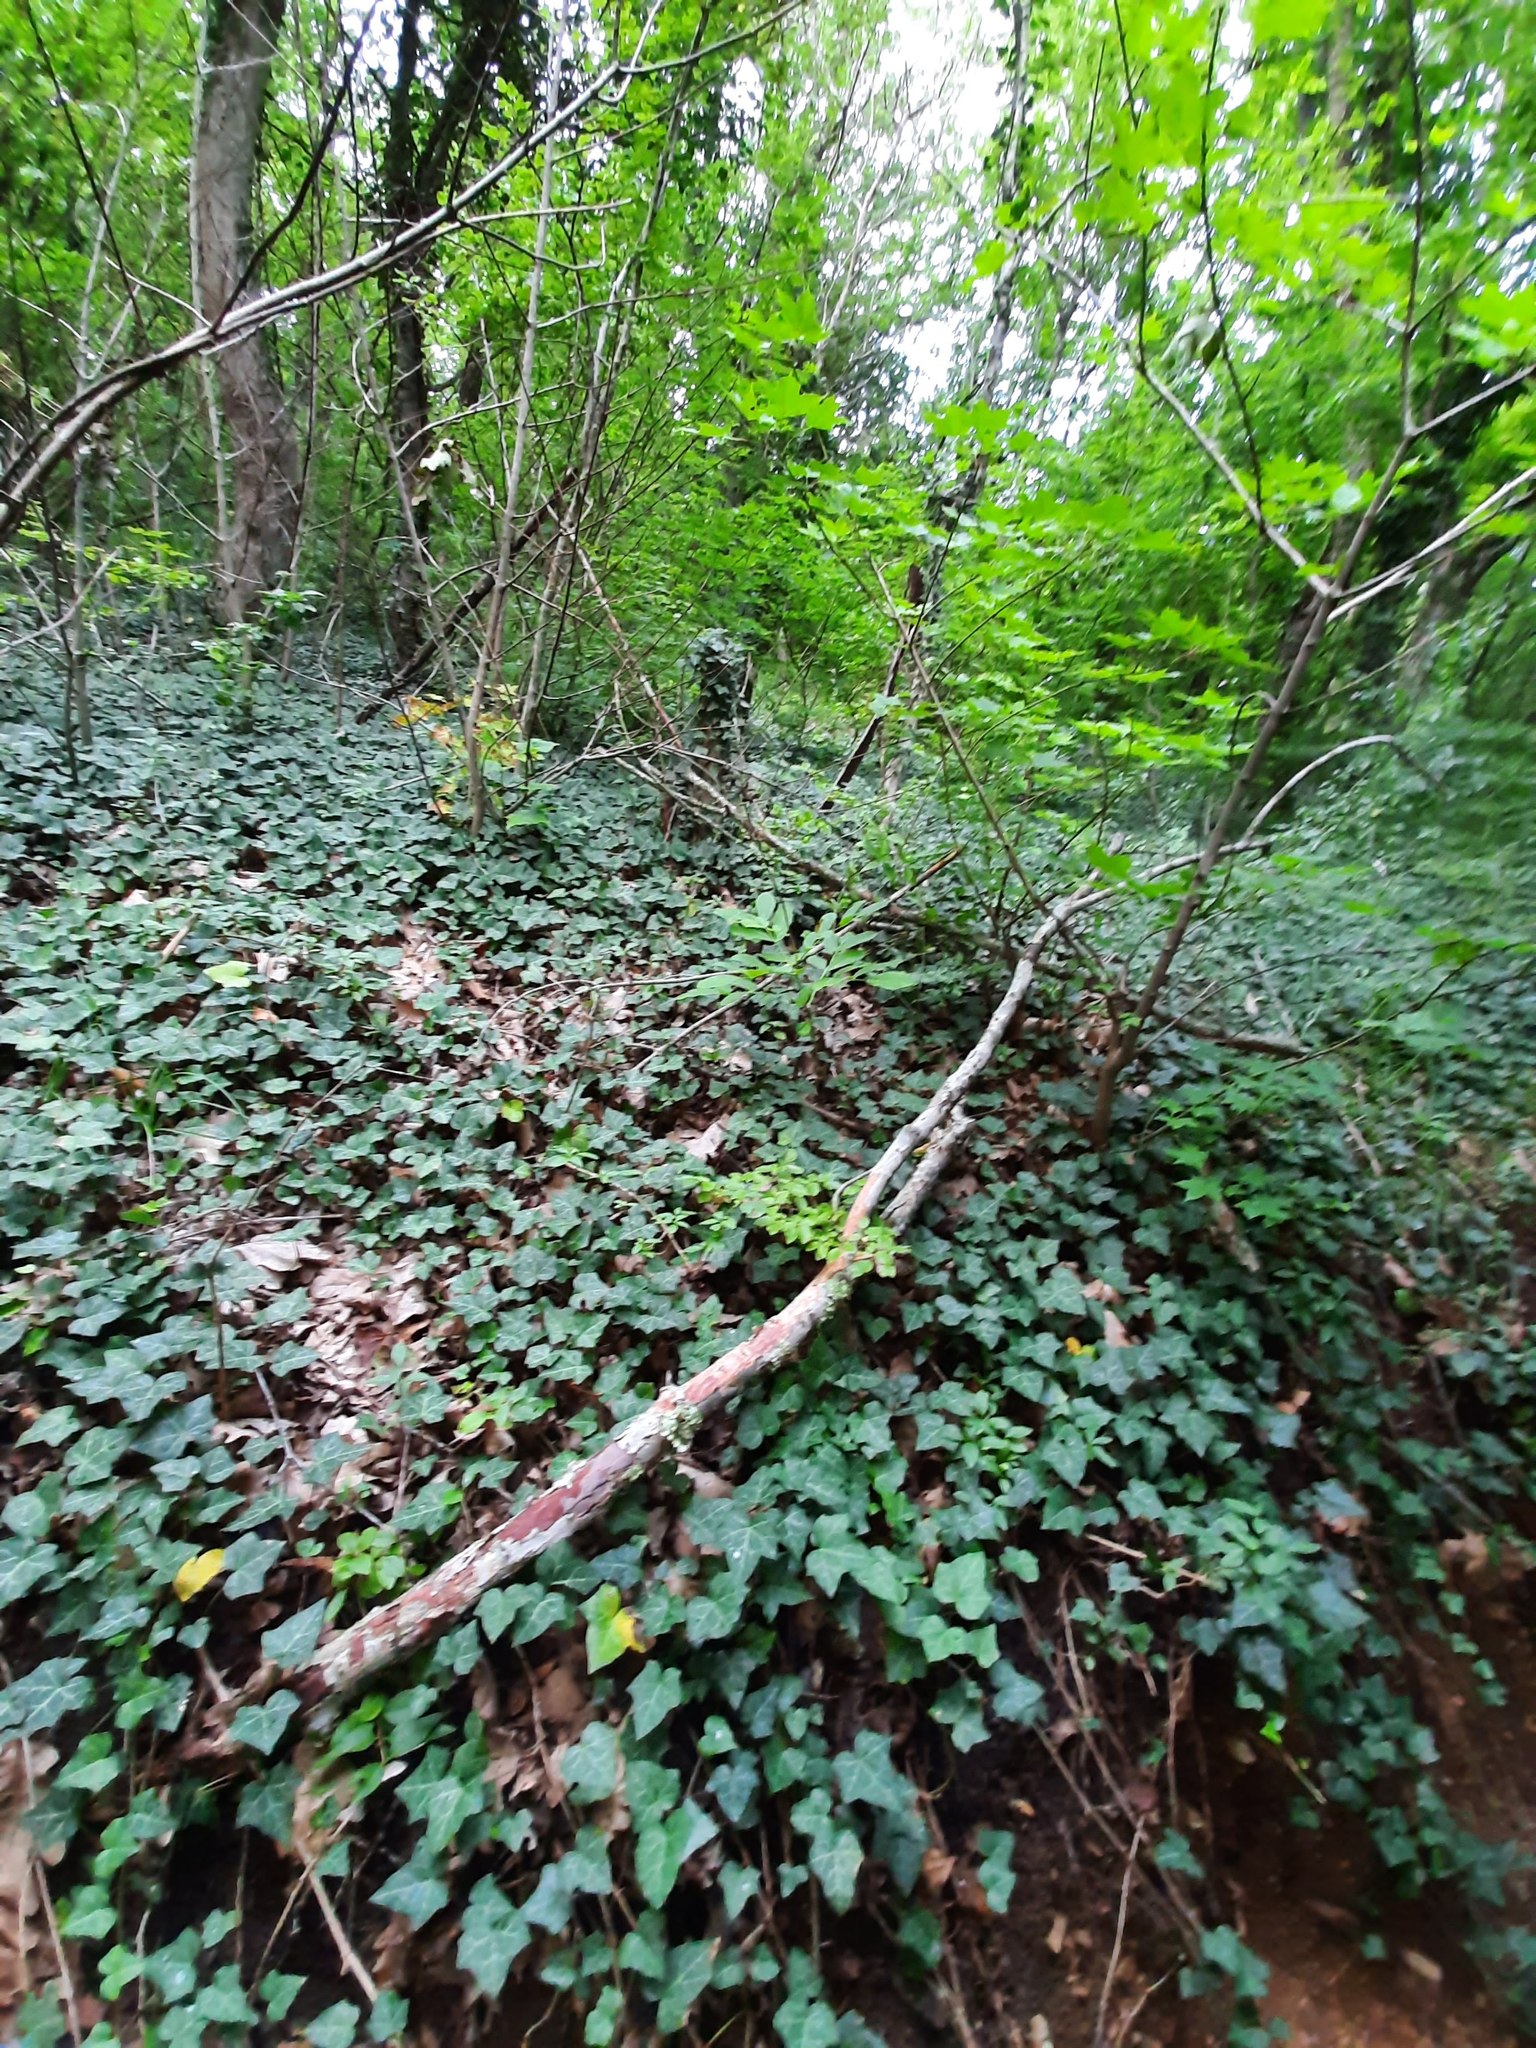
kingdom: Plantae
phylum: Tracheophyta
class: Magnoliopsida
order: Apiales
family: Araliaceae
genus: Hedera
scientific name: Hedera helix
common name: Ivy
